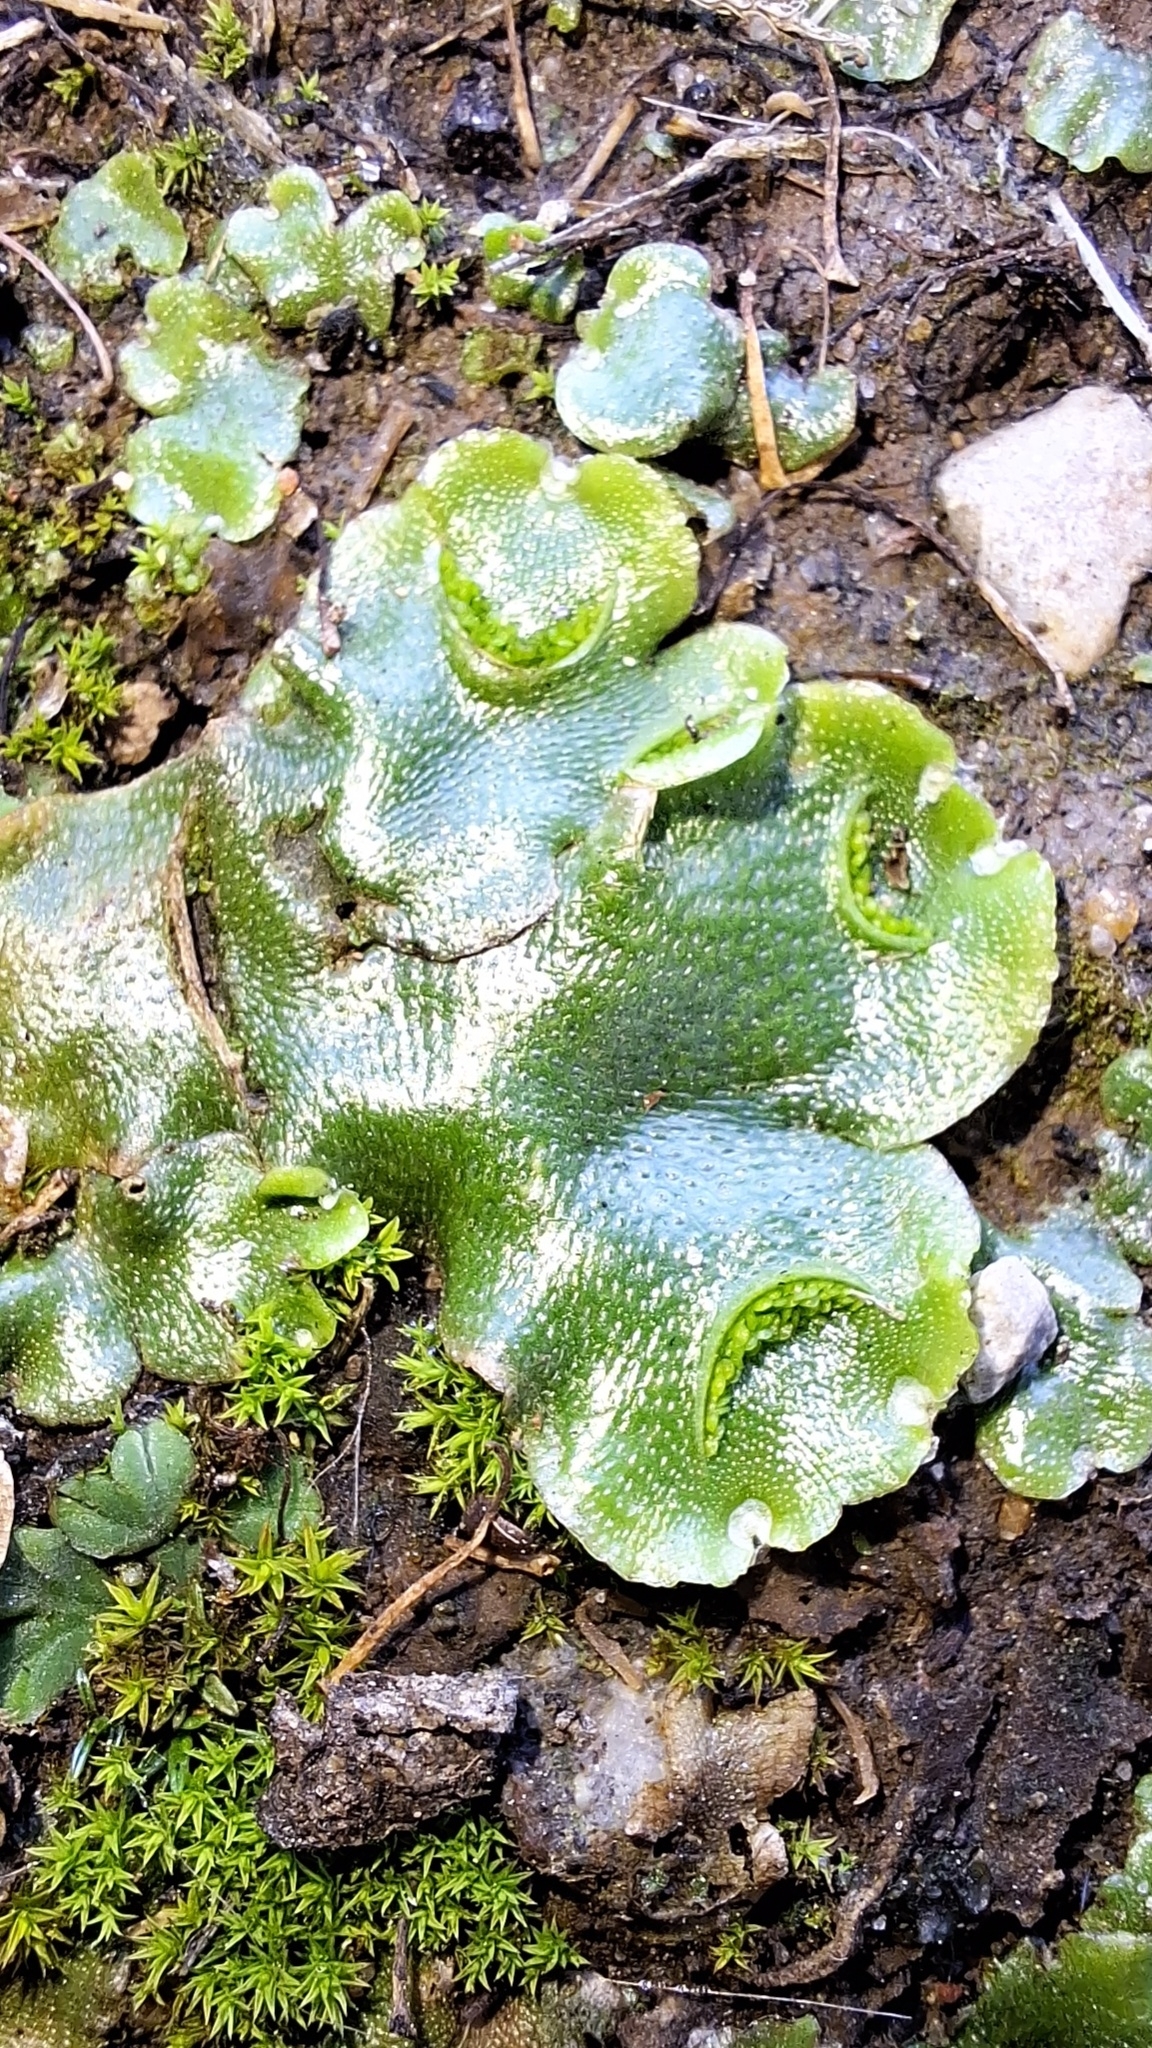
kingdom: Plantae
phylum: Marchantiophyta
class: Marchantiopsida
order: Lunulariales
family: Lunulariaceae
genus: Lunularia
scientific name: Lunularia cruciata
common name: Crescent-cup liverwort
